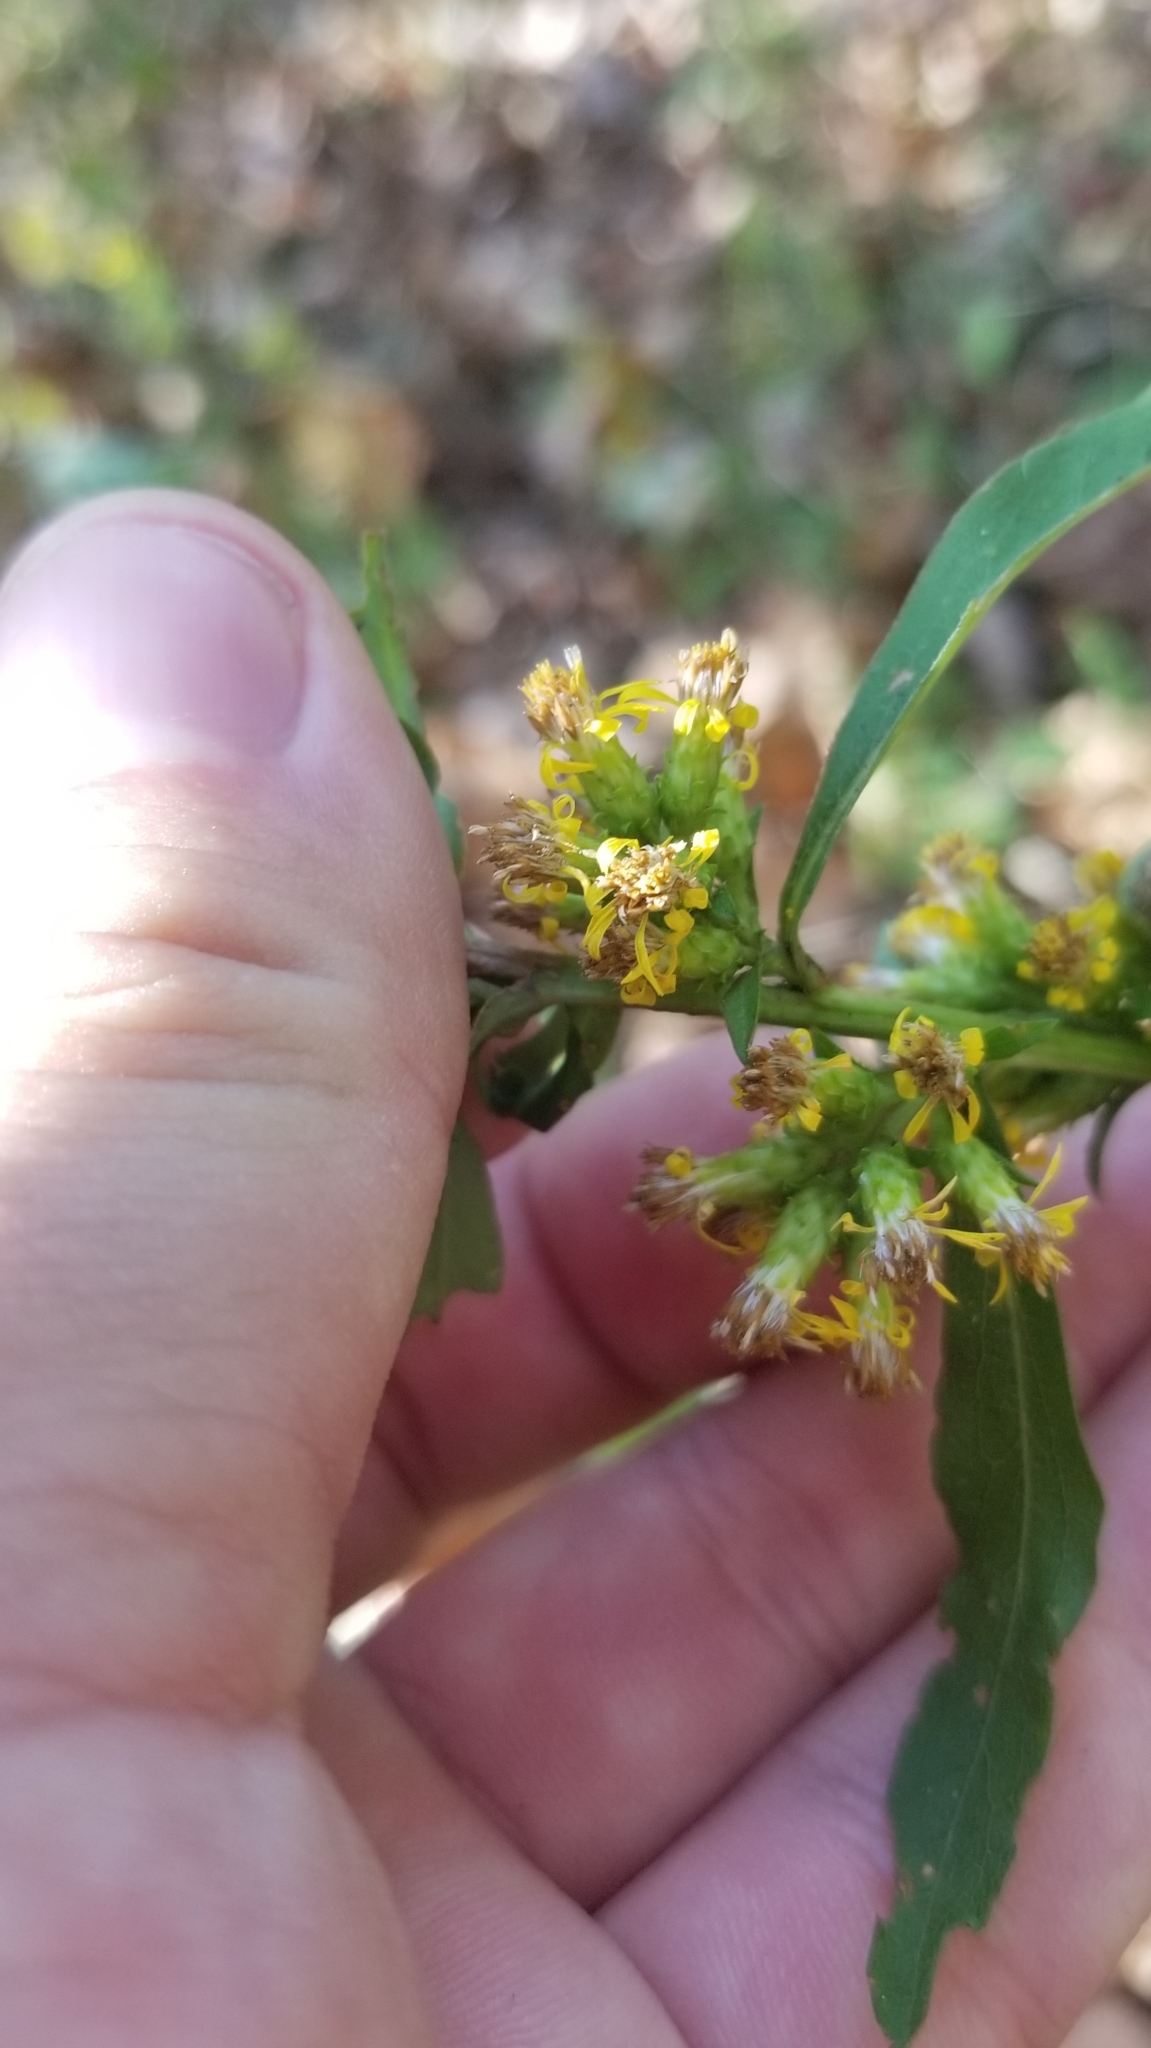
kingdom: Plantae
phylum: Tracheophyta
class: Magnoliopsida
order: Asterales
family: Asteraceae
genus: Solidago
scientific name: Solidago squarrosa
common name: Stout goldenrod
